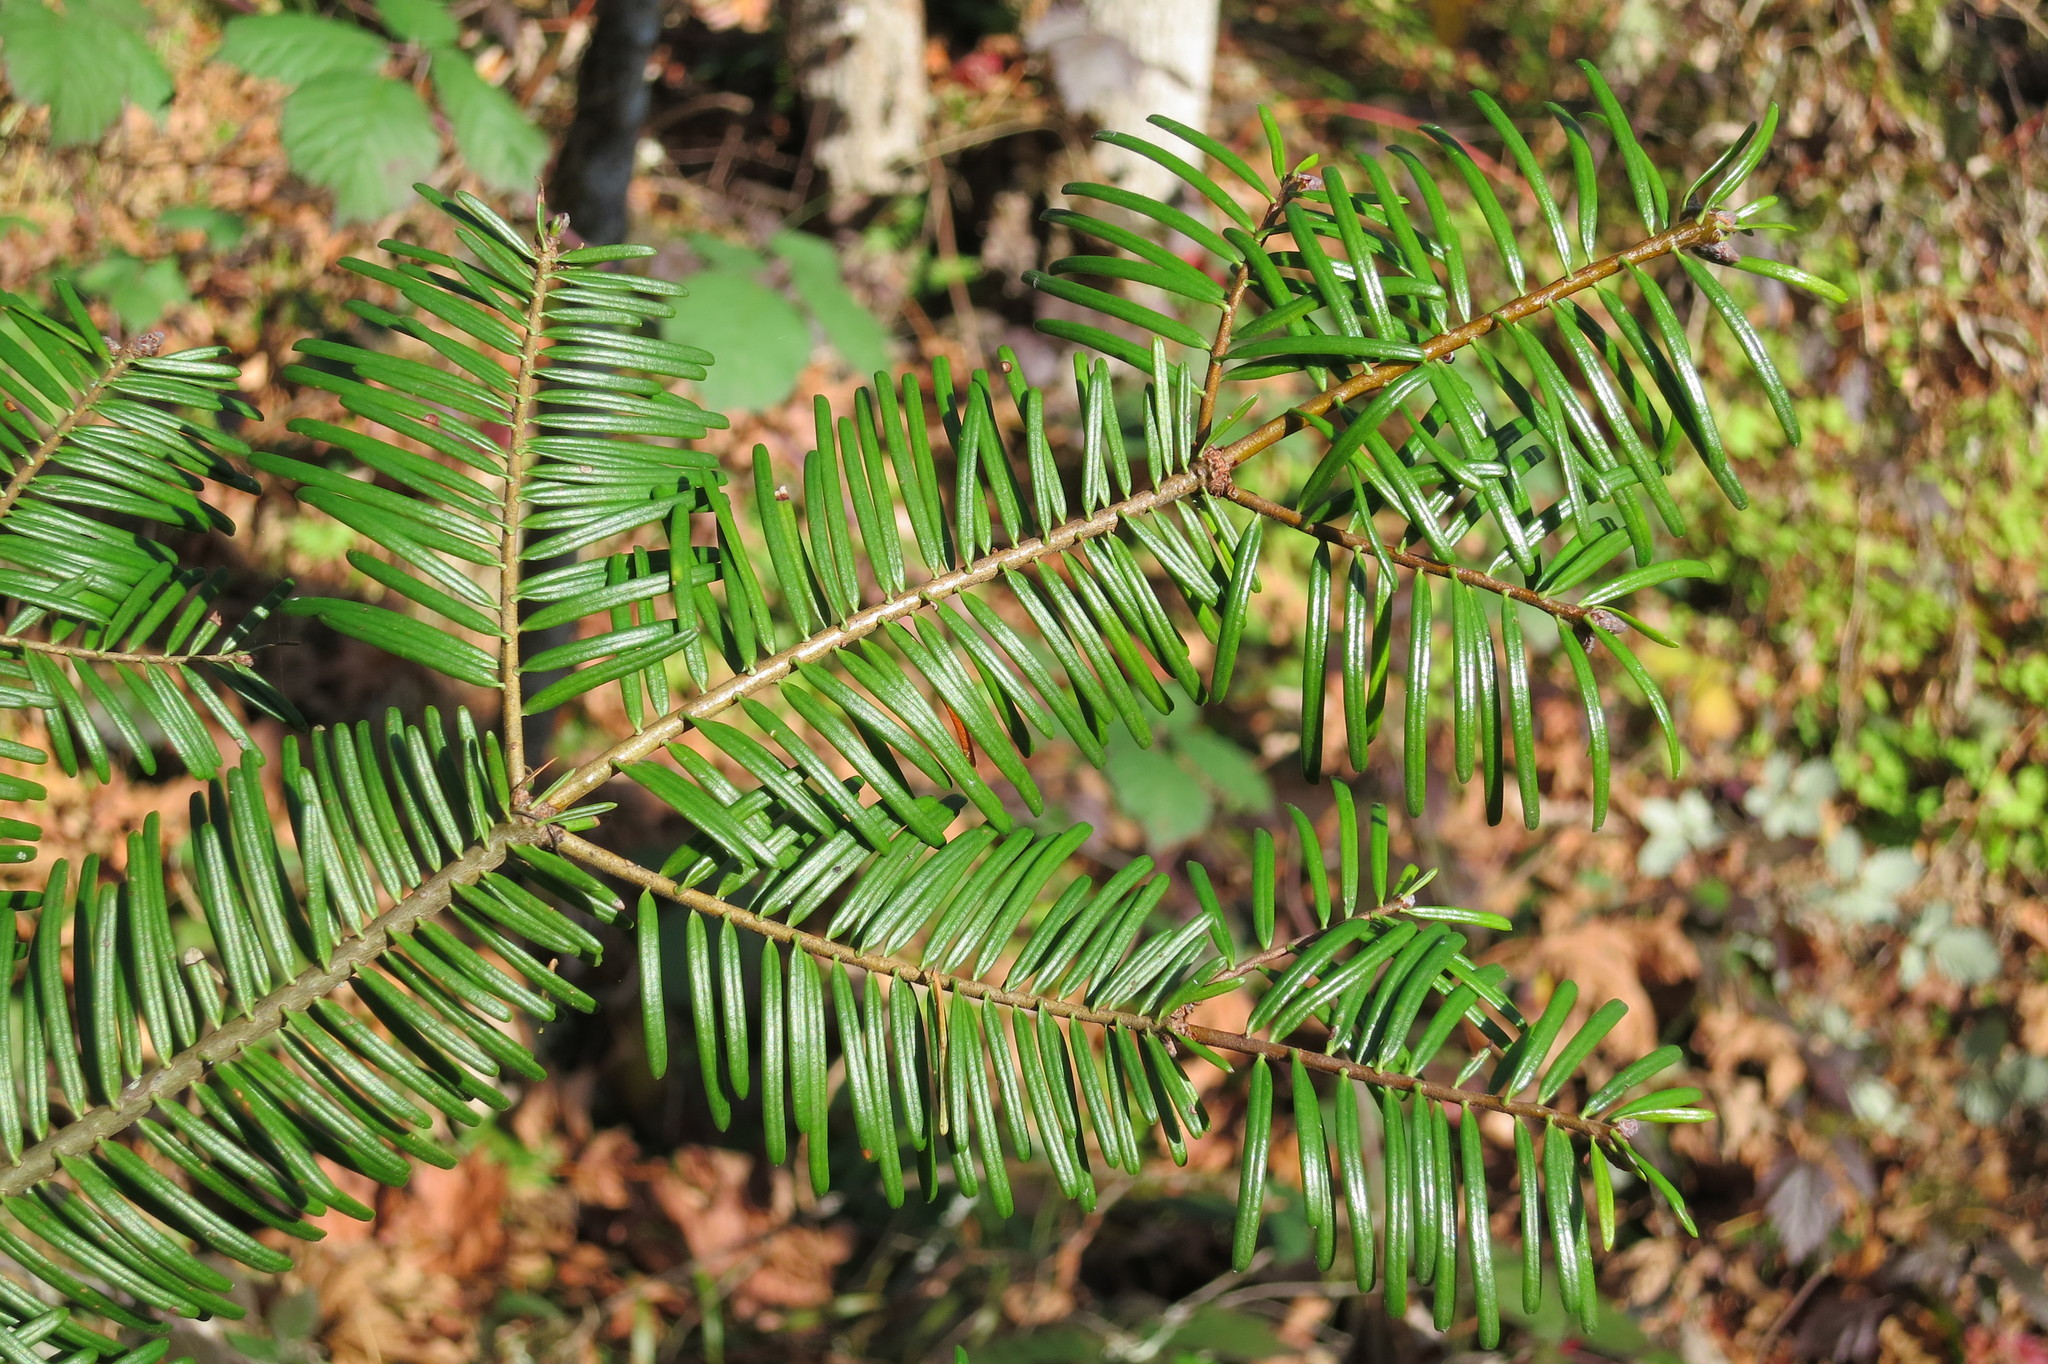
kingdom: Plantae
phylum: Tracheophyta
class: Pinopsida
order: Pinales
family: Pinaceae
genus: Abies
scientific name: Abies grandis
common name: Giant fir
